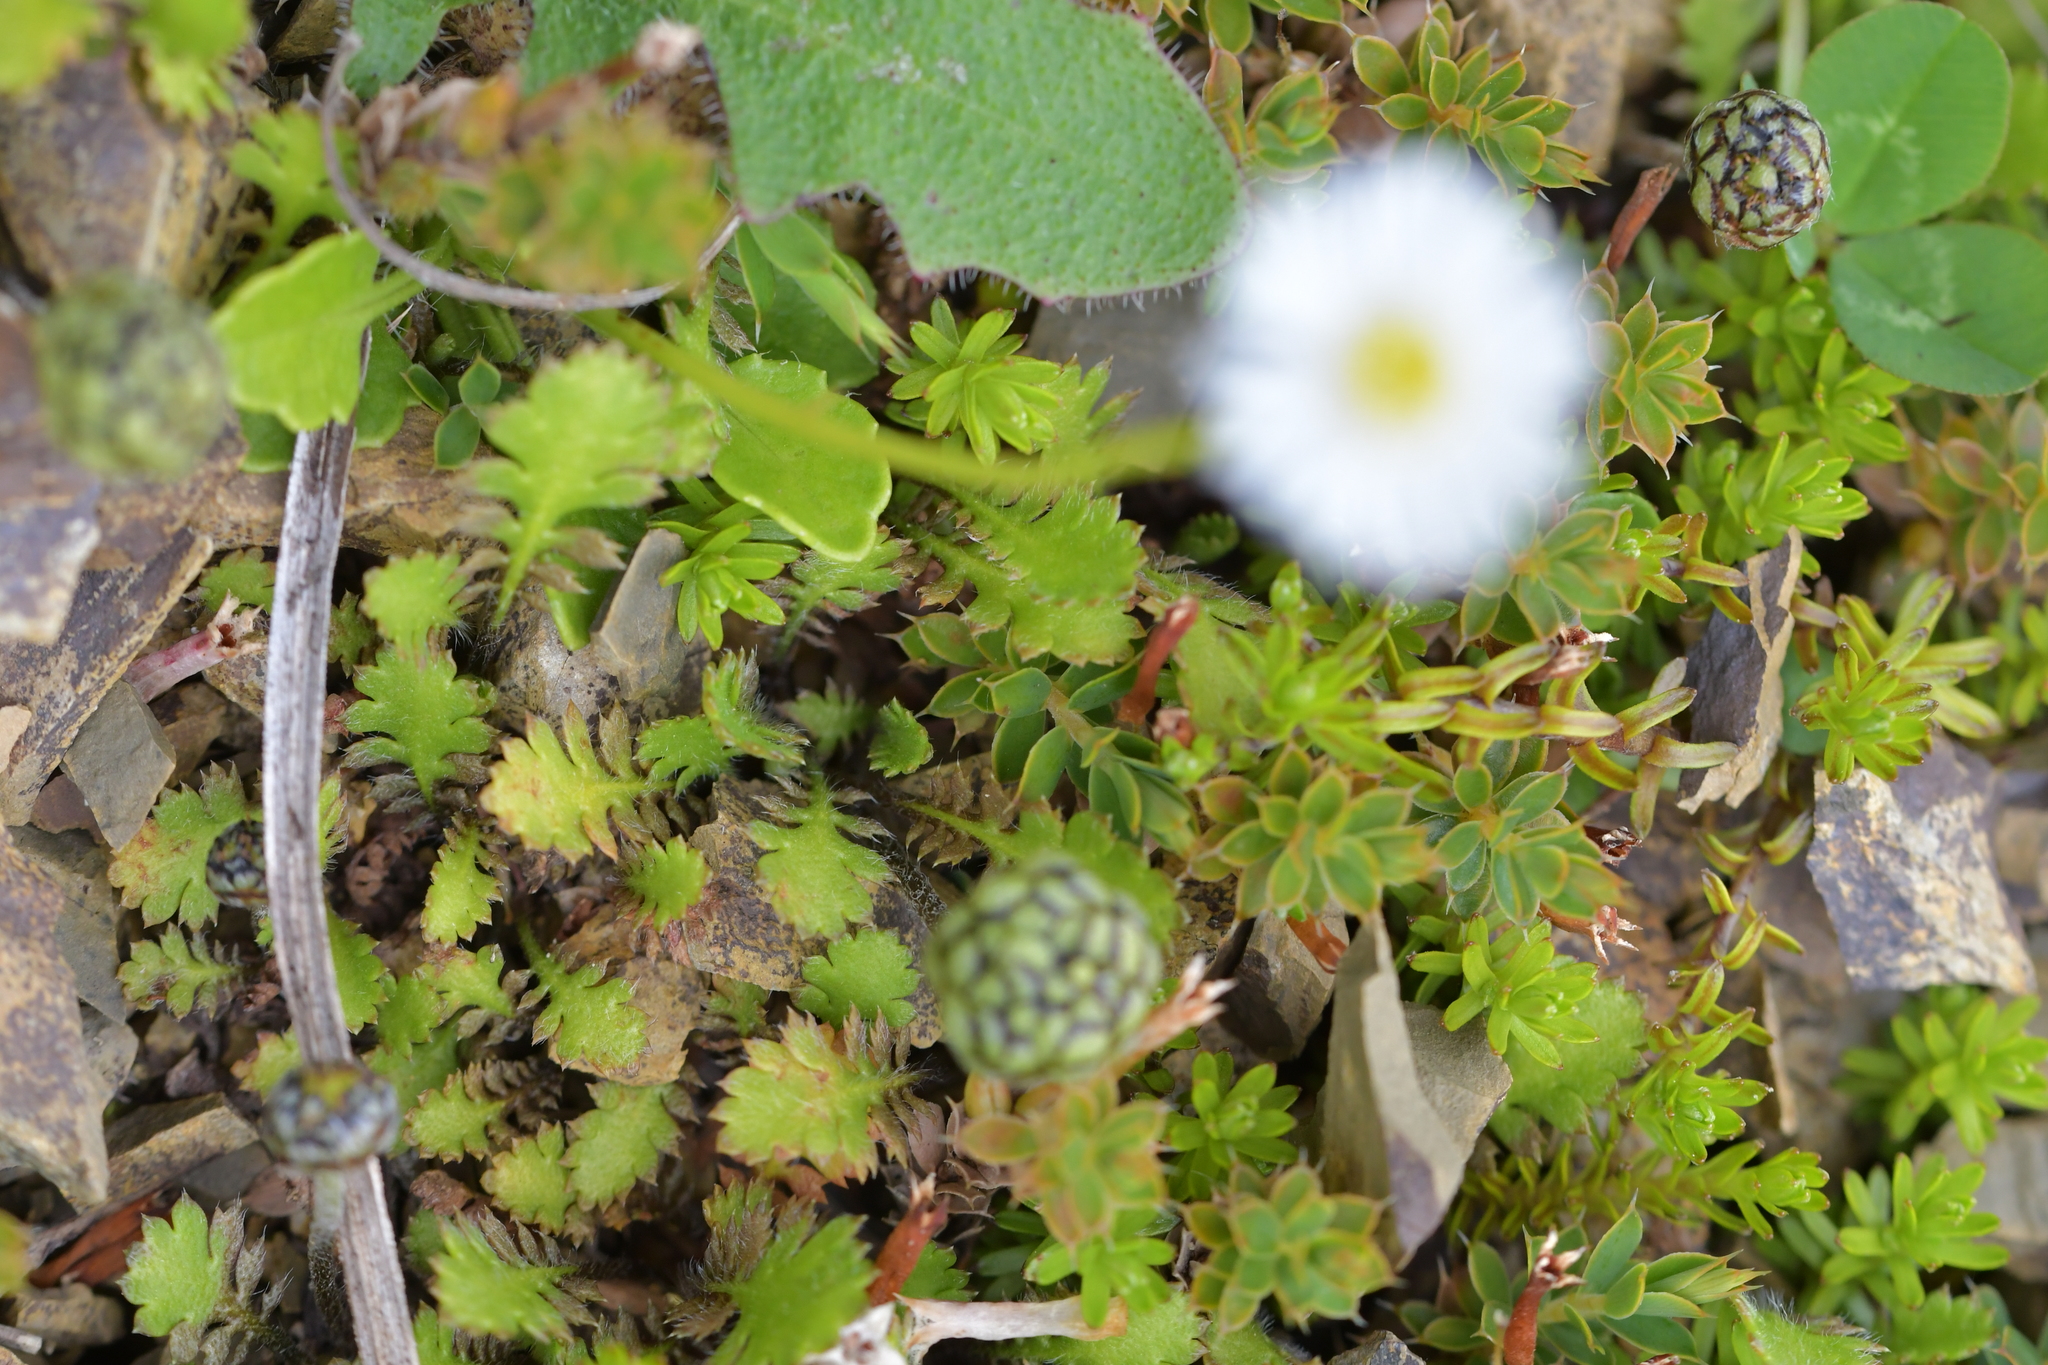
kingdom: Plantae
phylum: Tracheophyta
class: Magnoliopsida
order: Asterales
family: Asteraceae
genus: Lagenophora
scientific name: Lagenophora pumila
